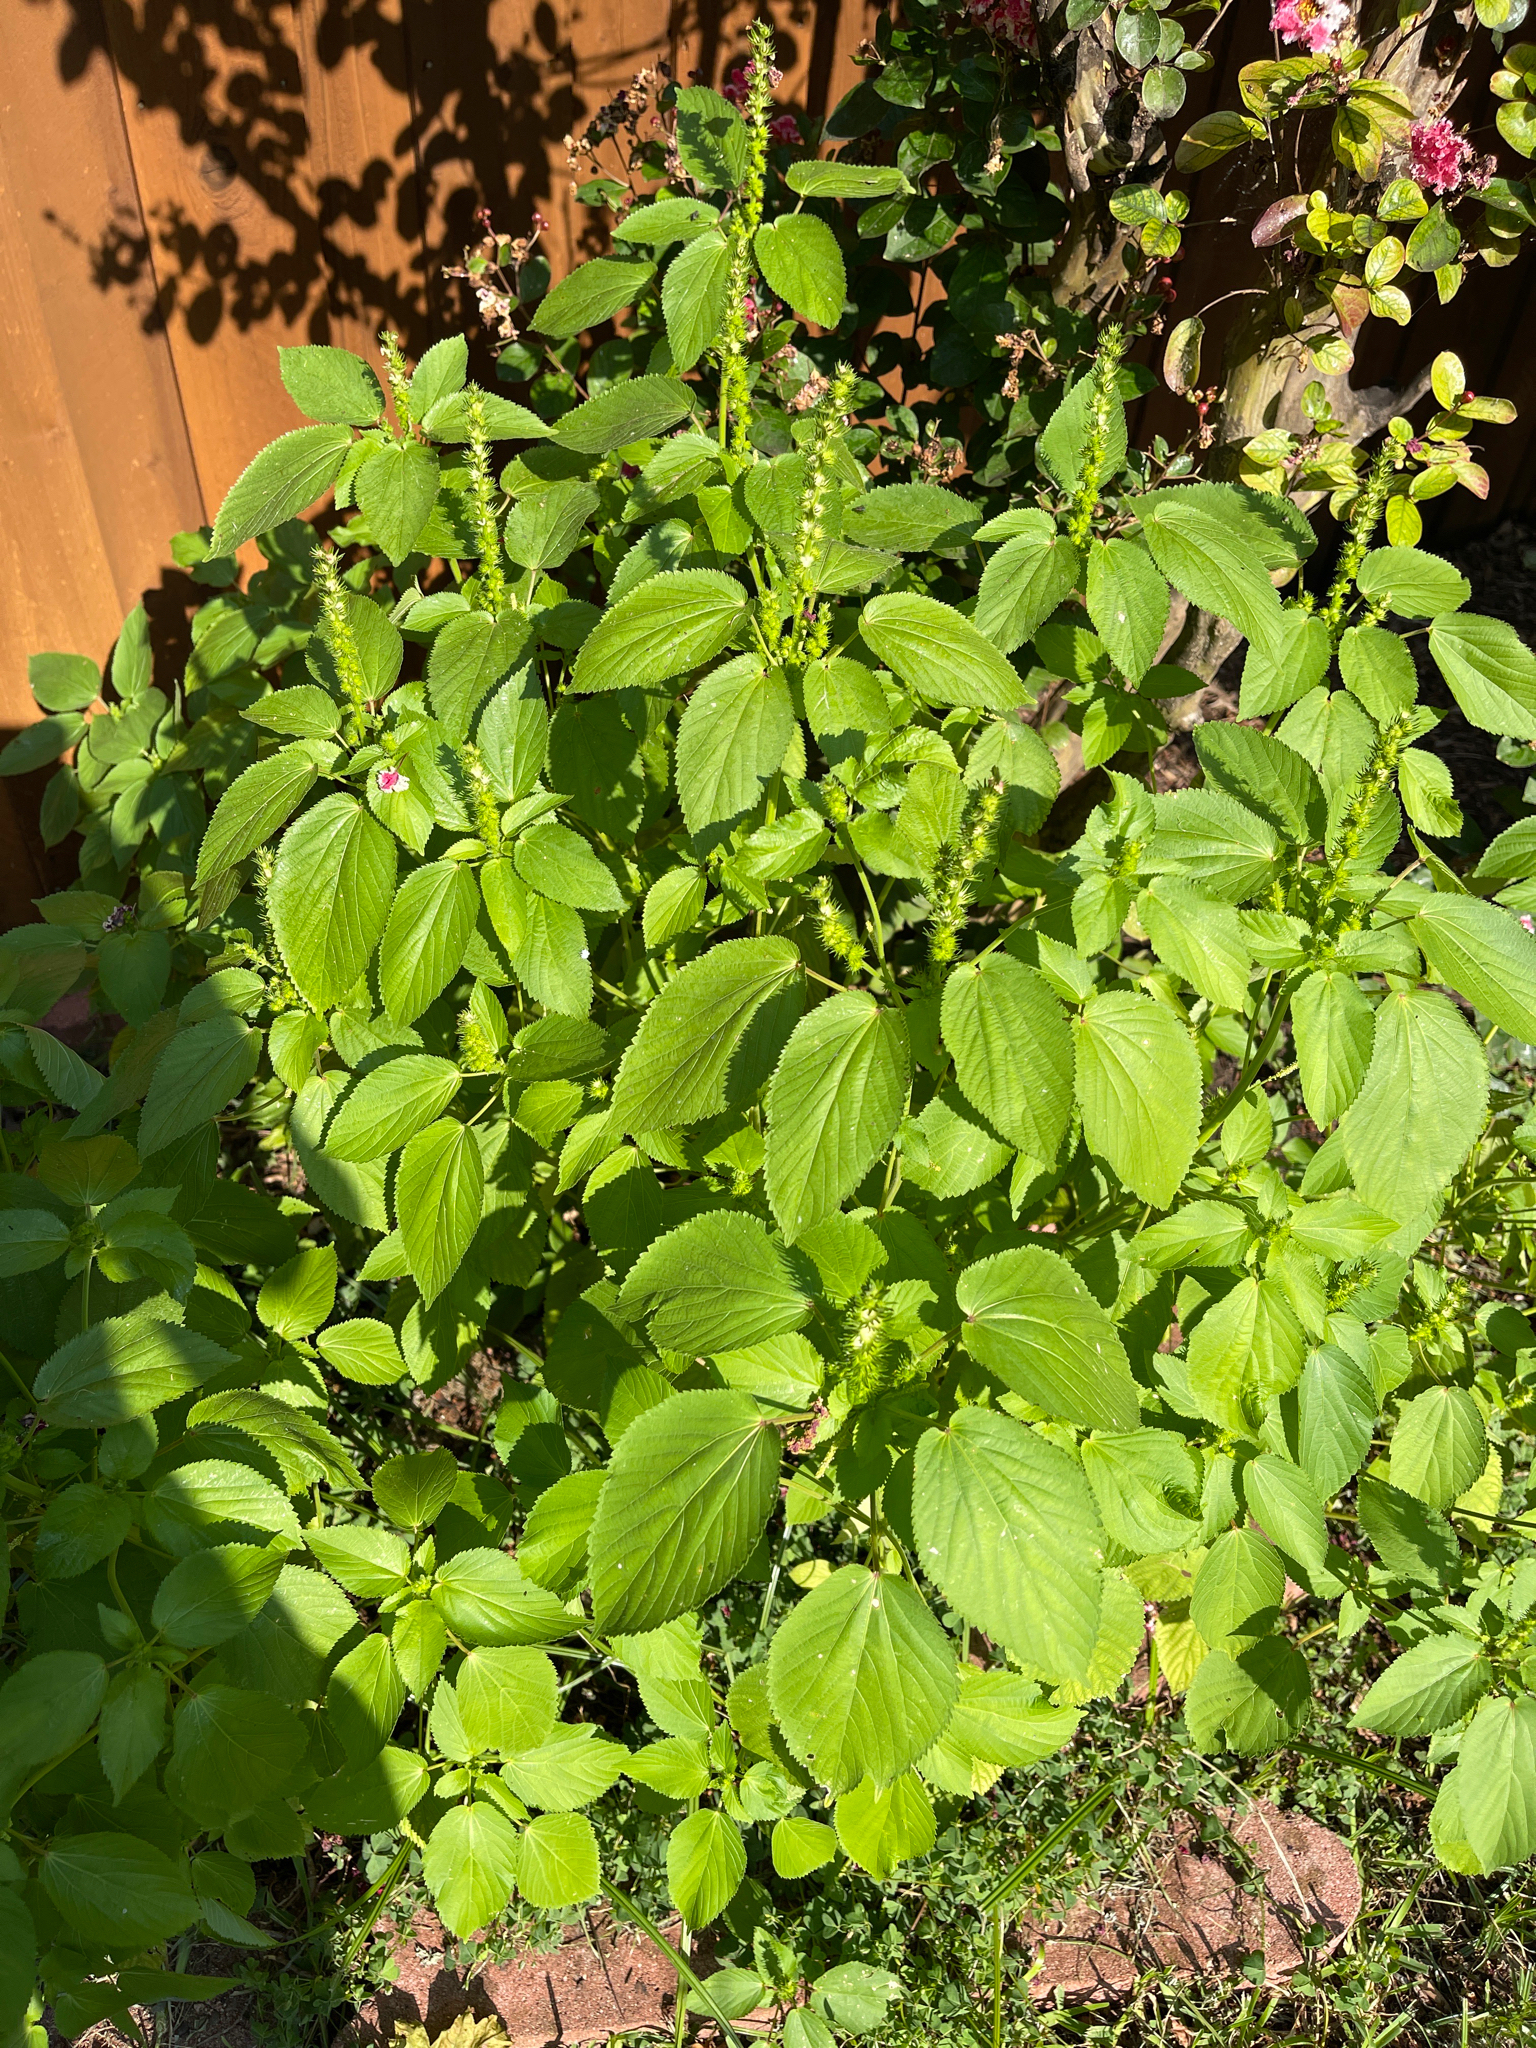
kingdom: Plantae
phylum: Tracheophyta
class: Magnoliopsida
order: Malpighiales
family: Euphorbiaceae
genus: Acalypha
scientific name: Acalypha ostryifolia
